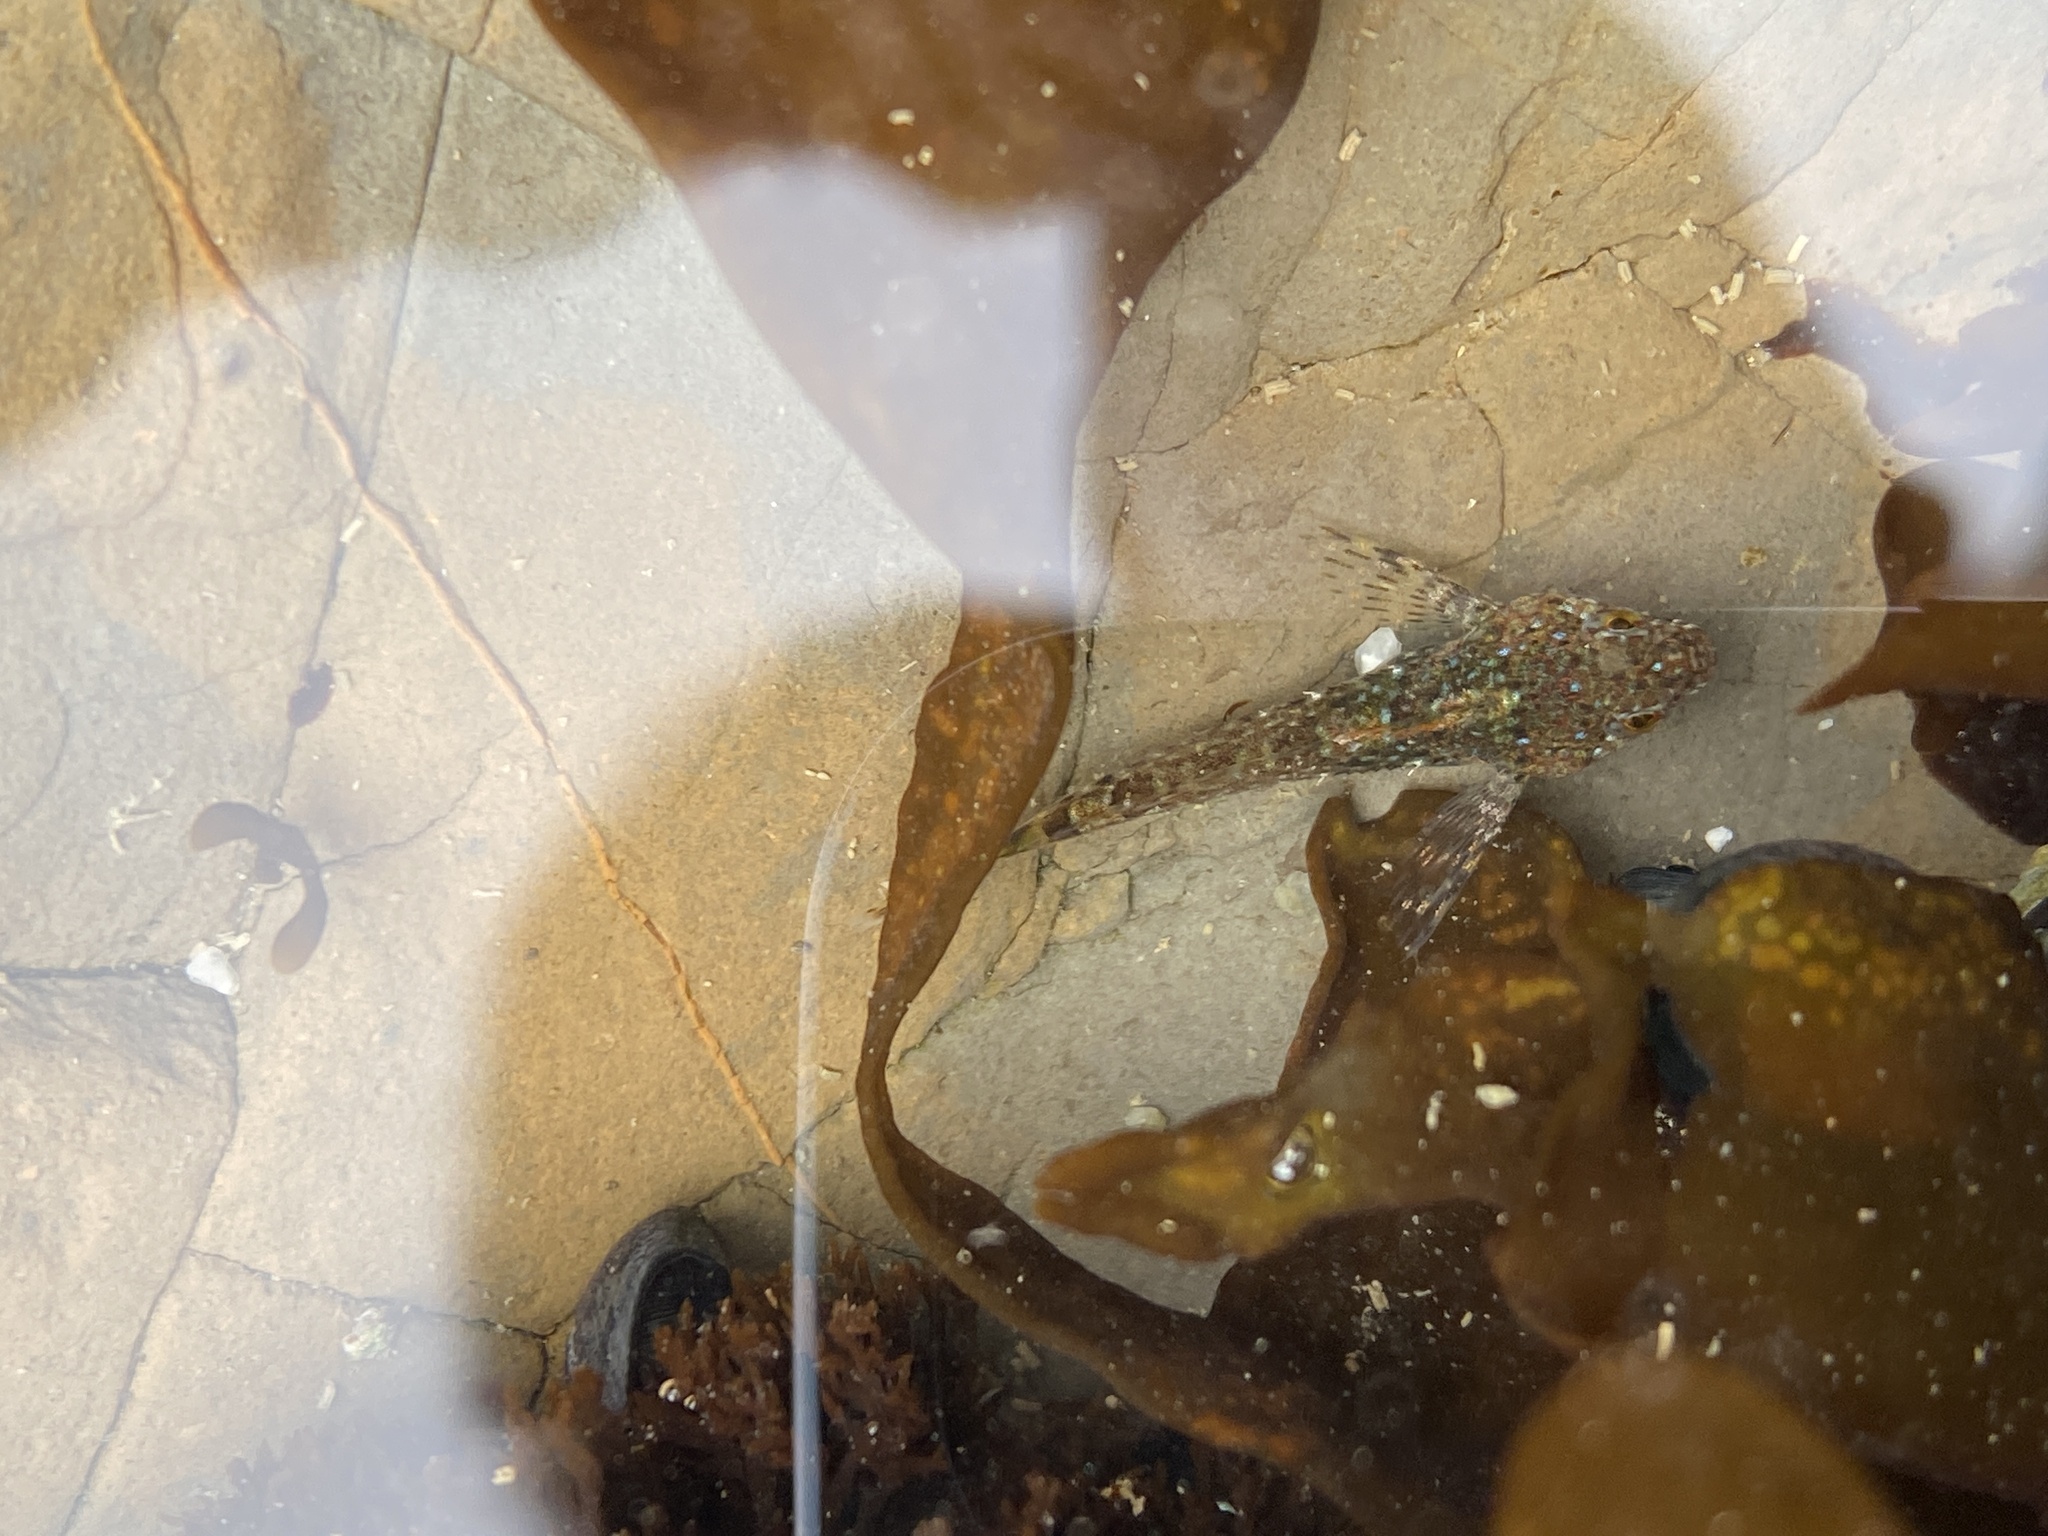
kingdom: Animalia
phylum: Chordata
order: Scorpaeniformes
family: Cottidae
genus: Clinocottus
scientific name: Clinocottus analis
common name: Woolly sculpin
